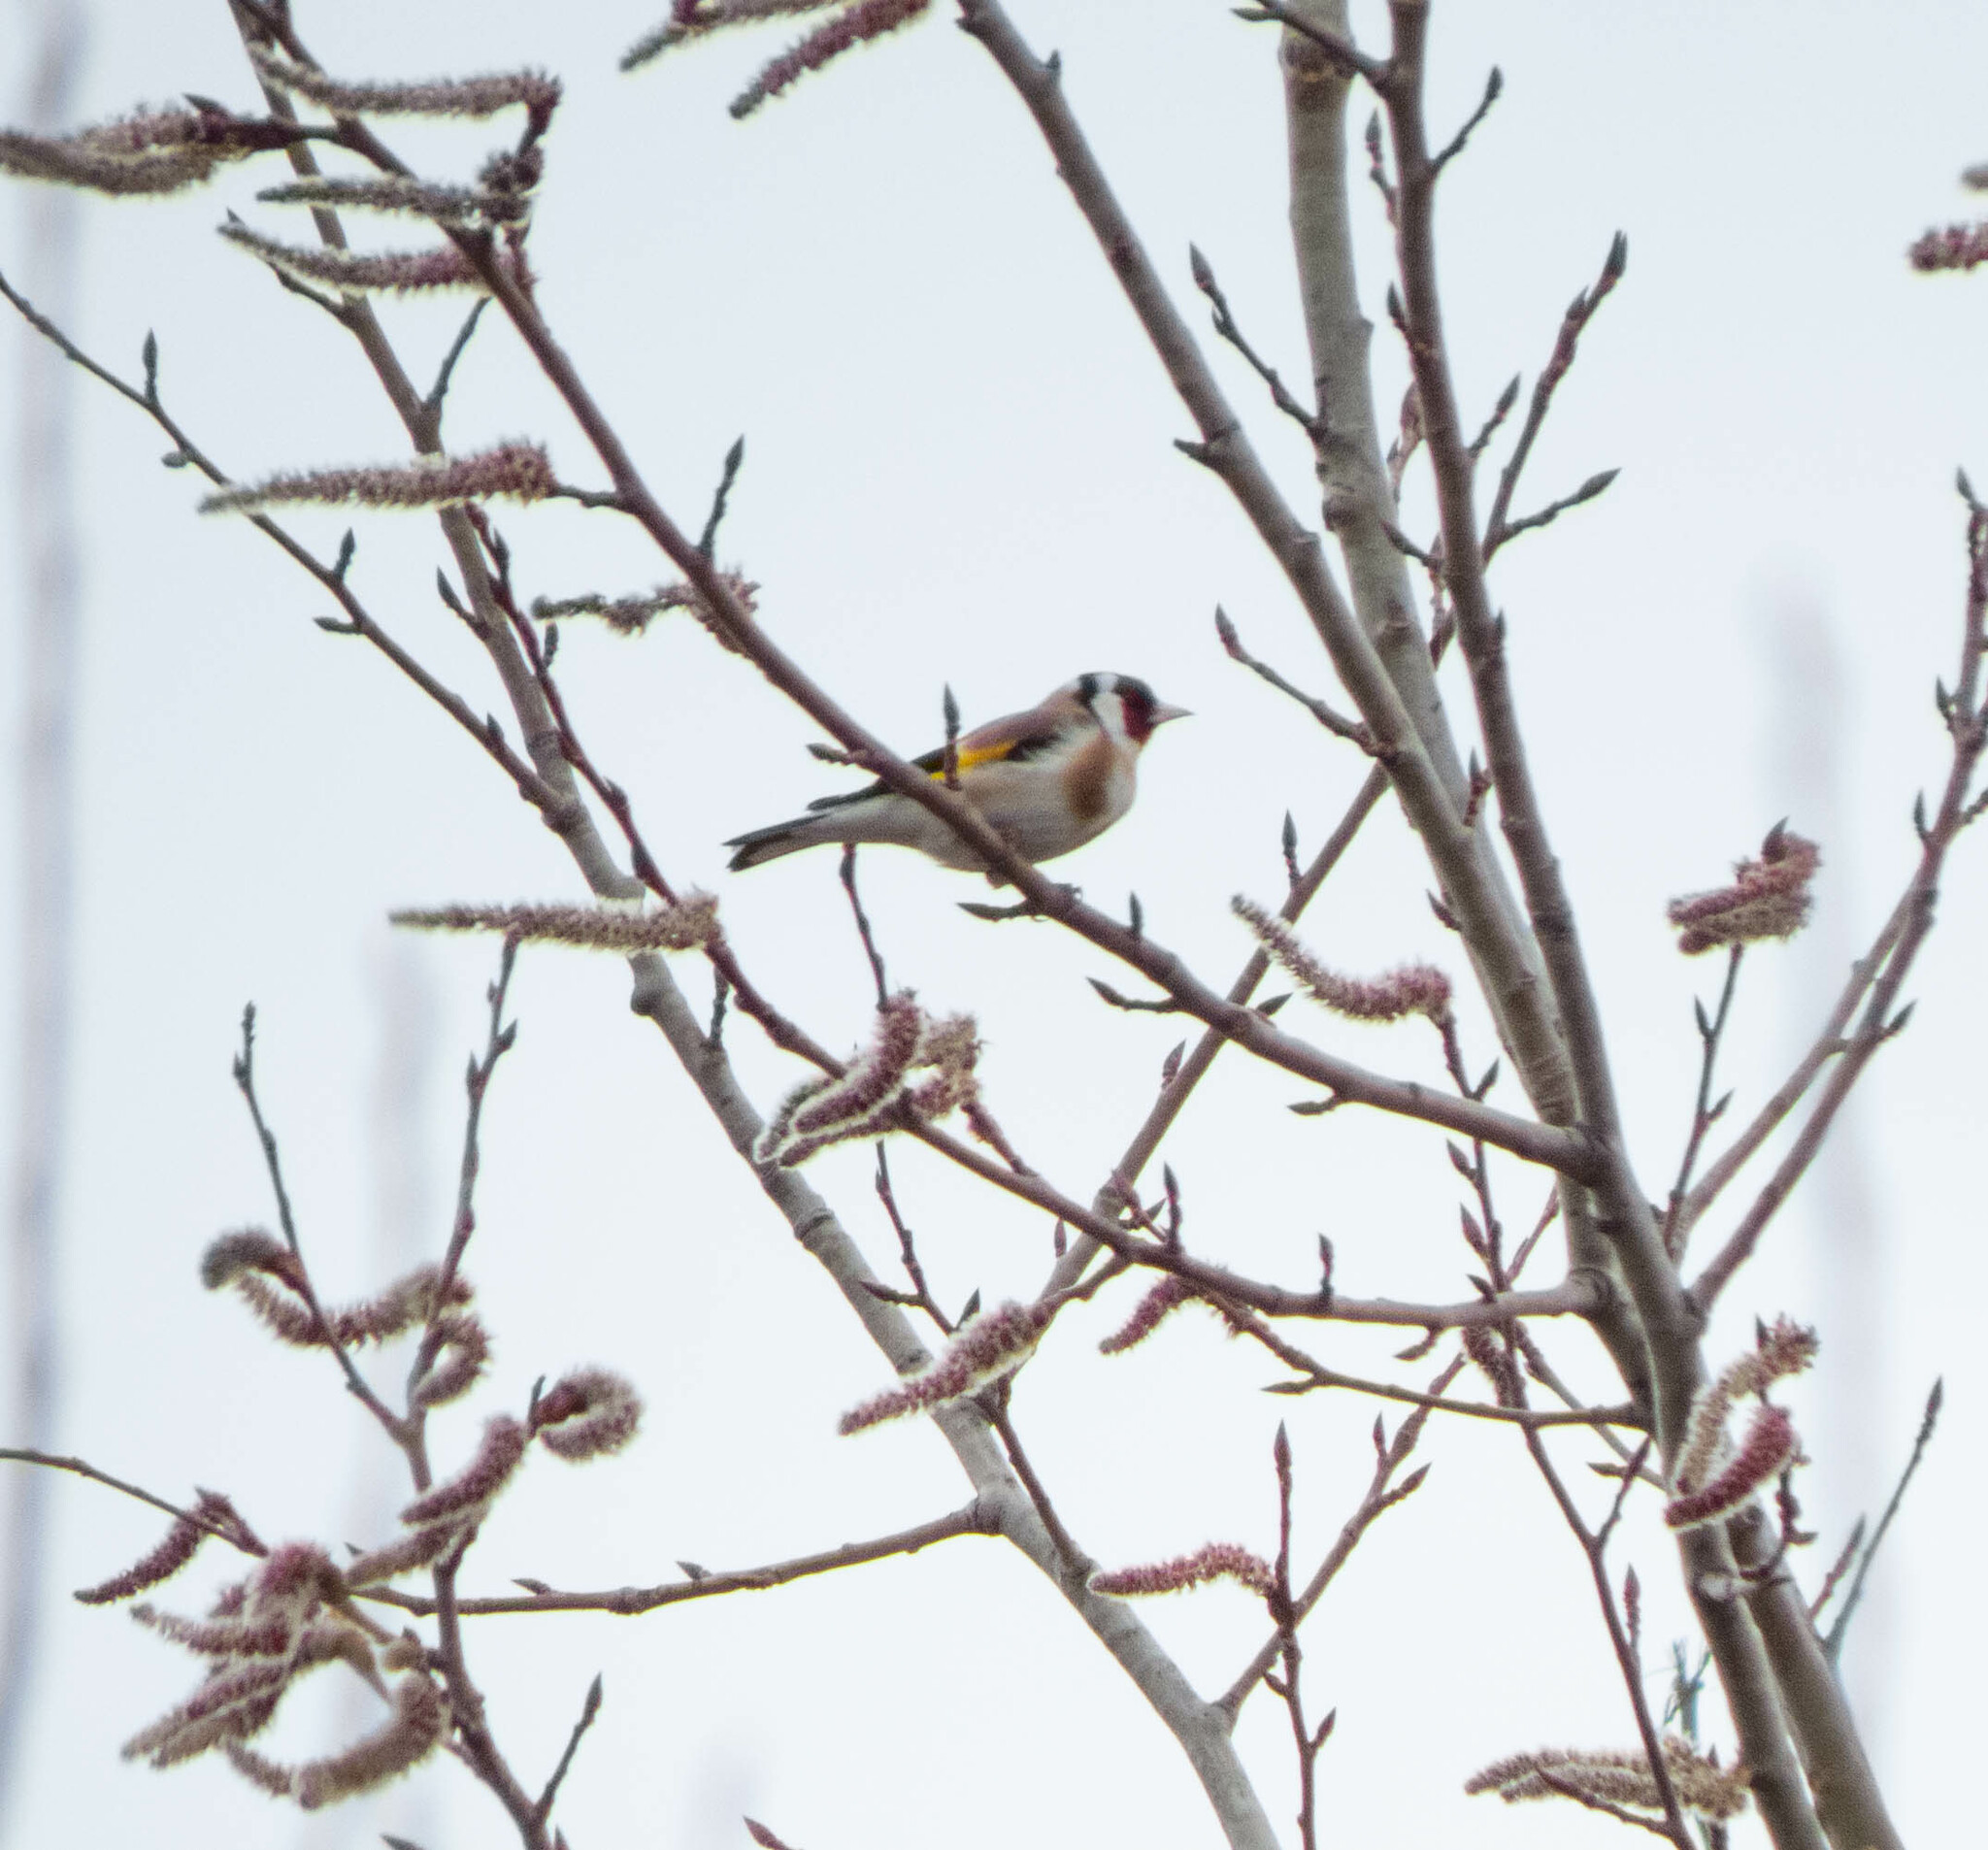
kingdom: Animalia
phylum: Chordata
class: Aves
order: Passeriformes
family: Fringillidae
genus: Carduelis
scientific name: Carduelis carduelis
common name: European goldfinch
